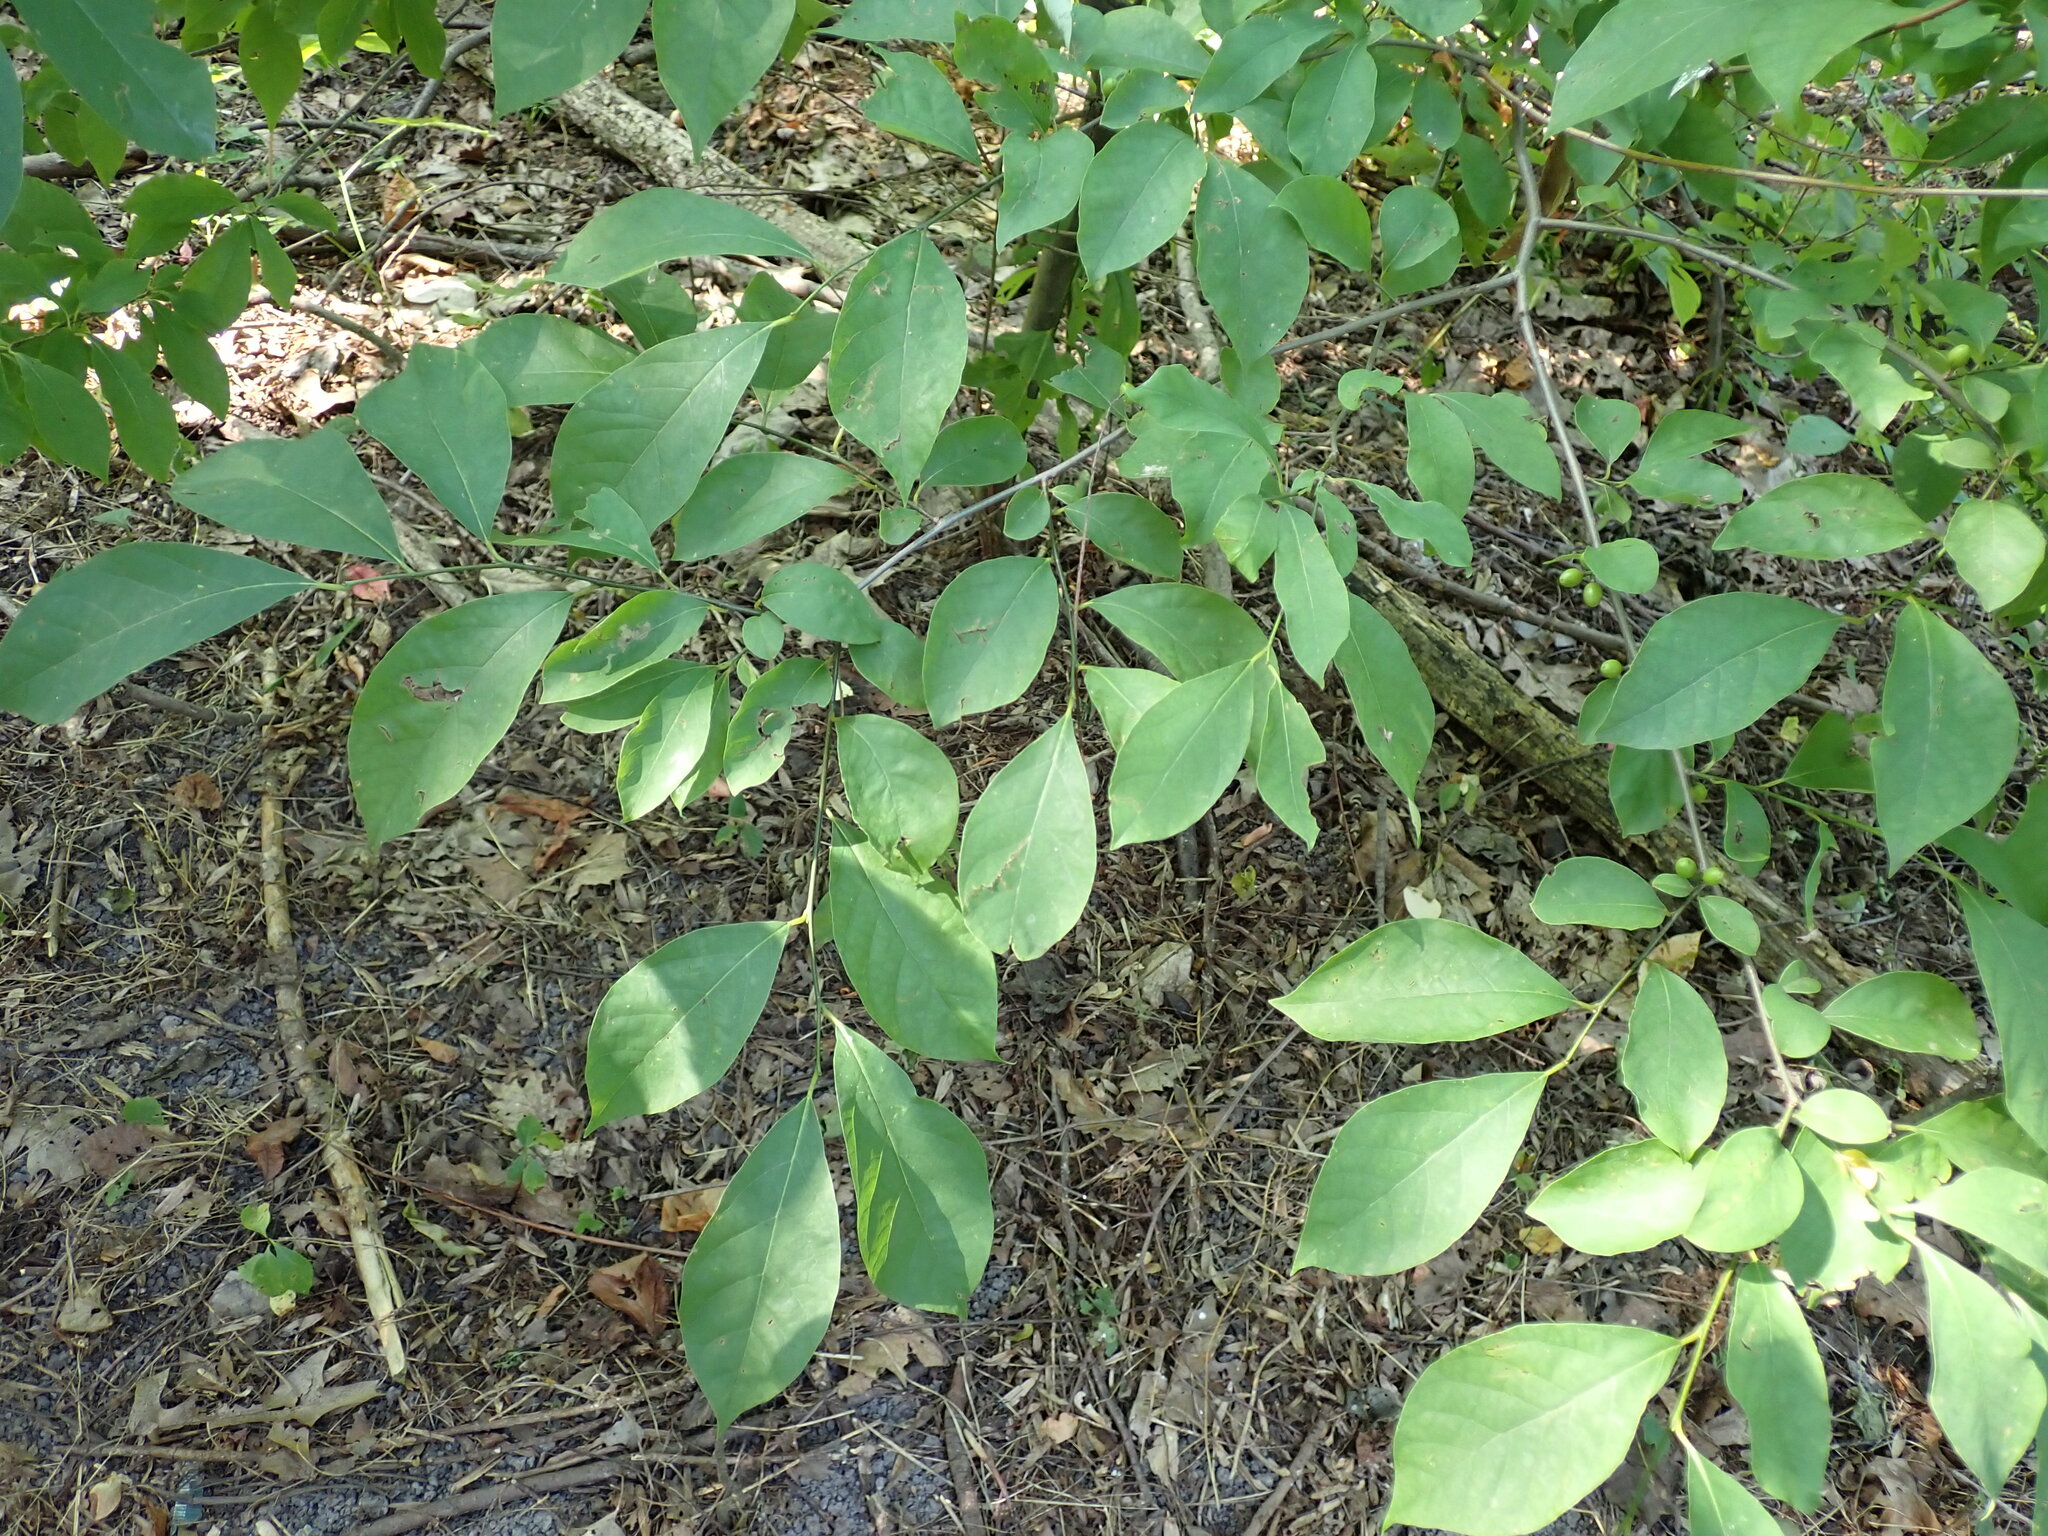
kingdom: Plantae
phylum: Tracheophyta
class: Magnoliopsida
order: Laurales
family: Lauraceae
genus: Lindera
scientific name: Lindera benzoin
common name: Spicebush
